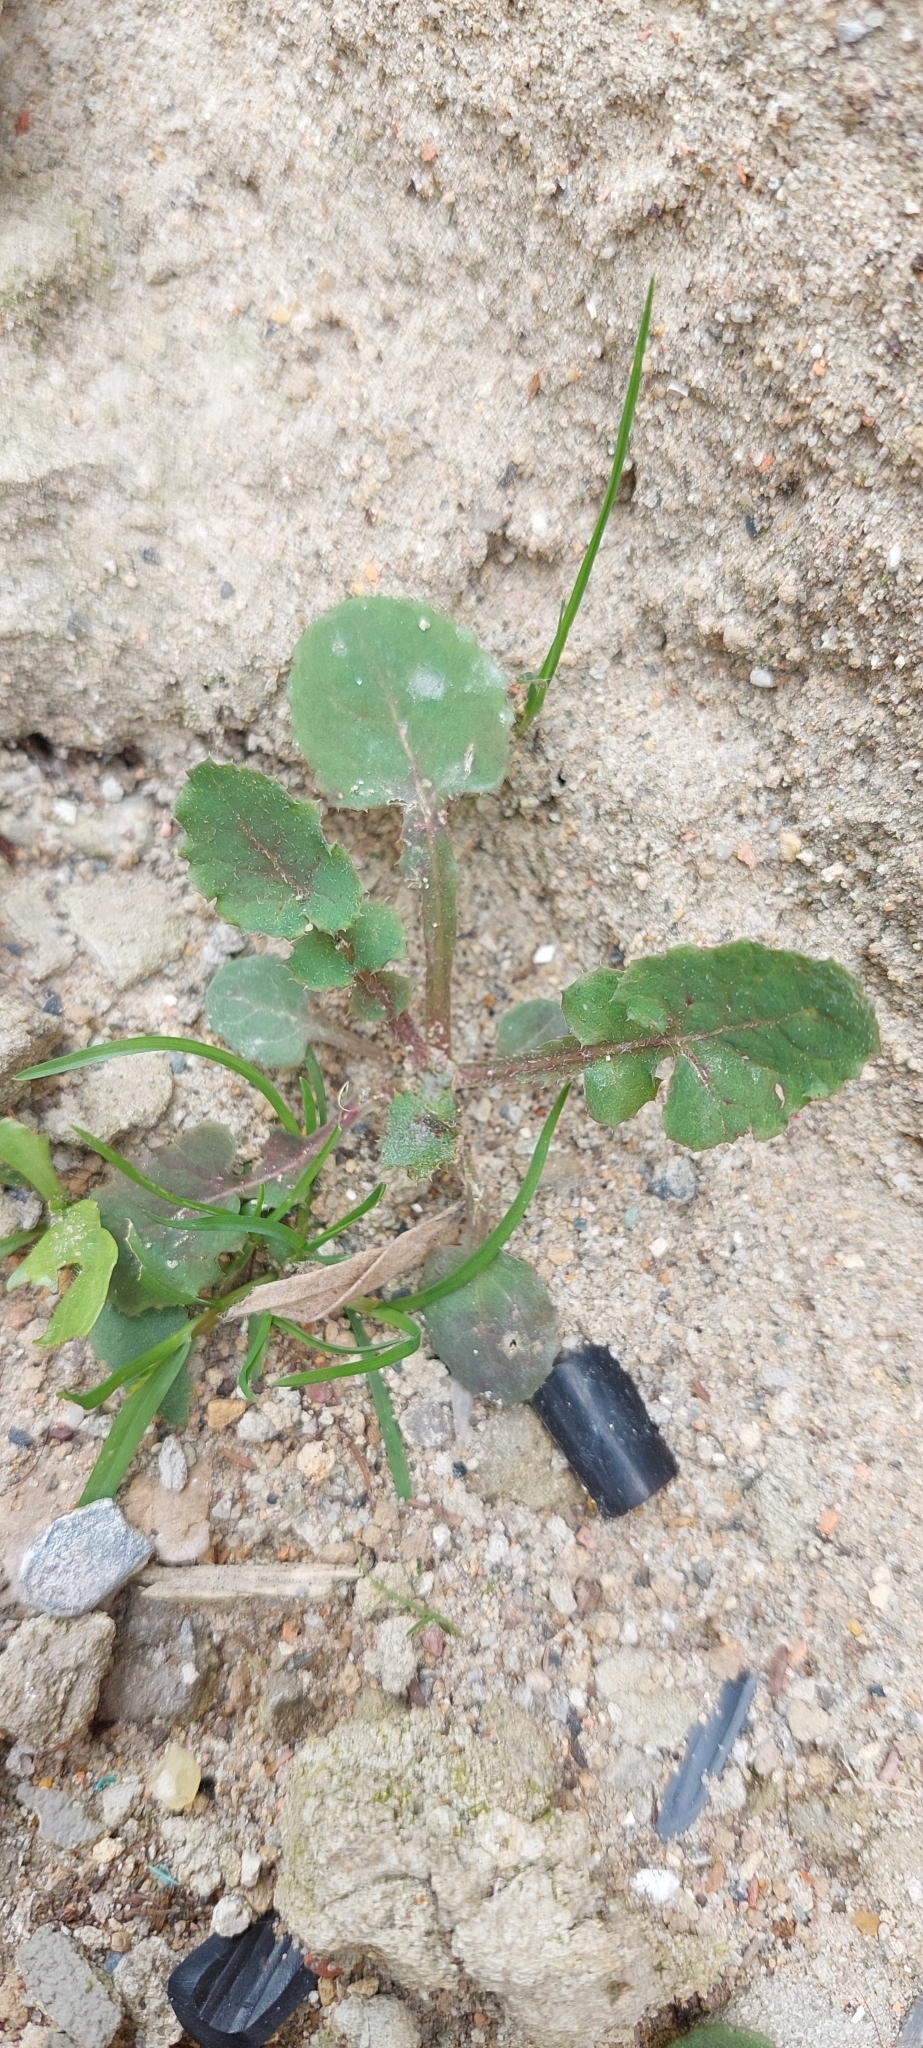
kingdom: Plantae
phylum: Tracheophyta
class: Magnoliopsida
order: Asterales
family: Asteraceae
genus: Sonchus
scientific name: Sonchus oleraceus
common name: Common sowthistle
